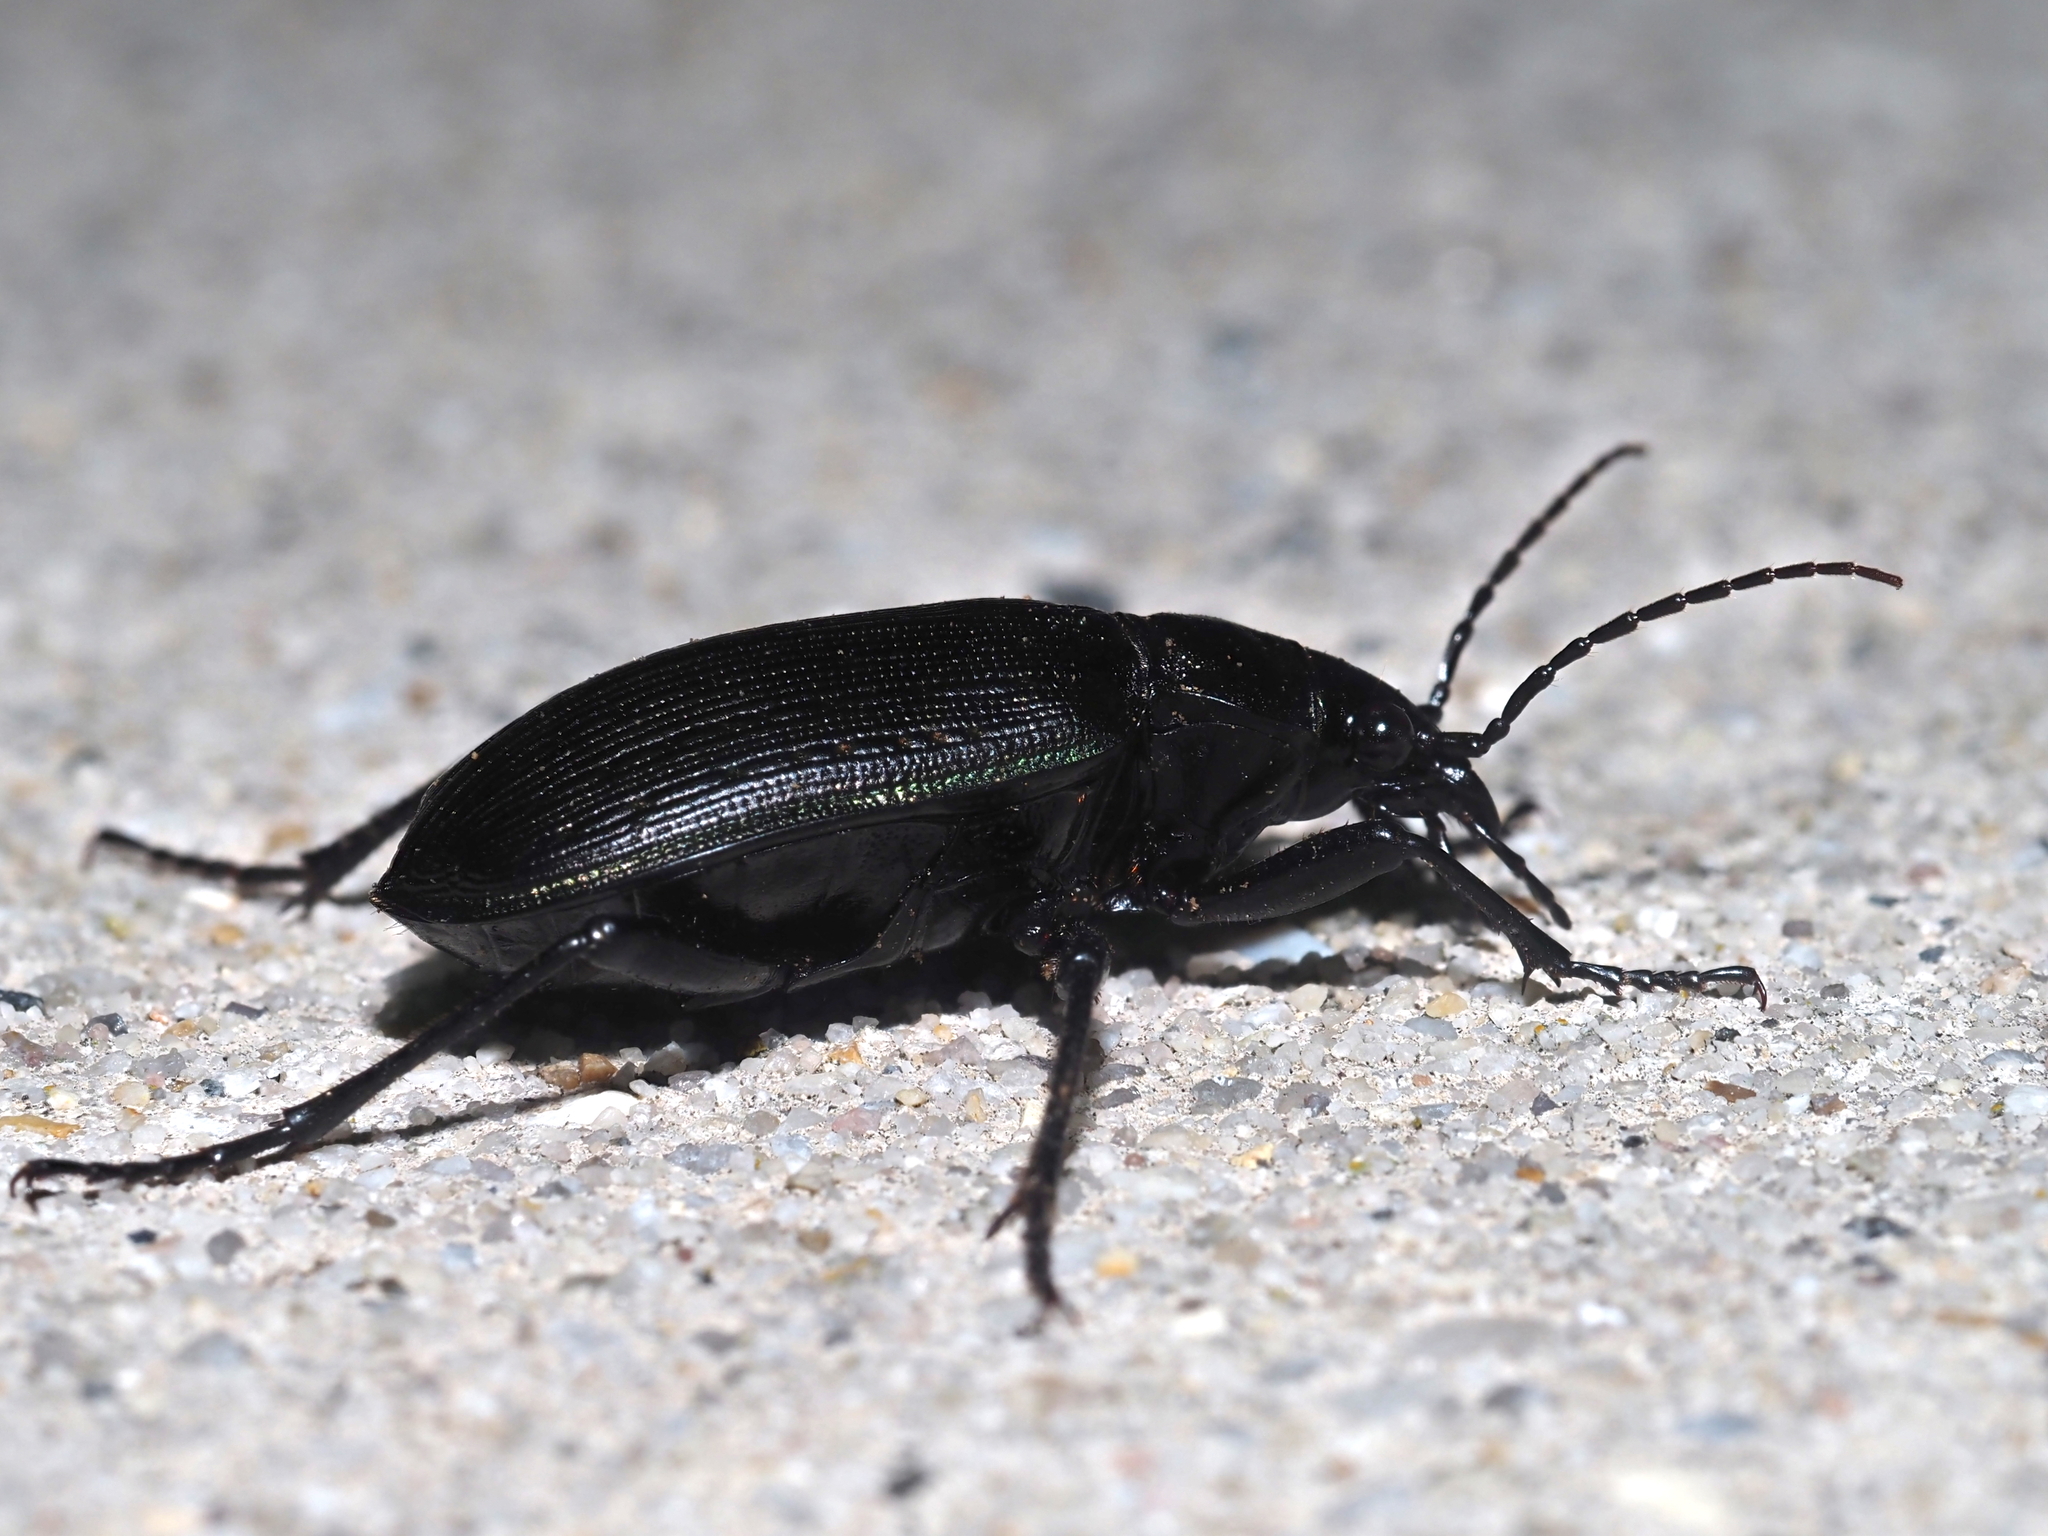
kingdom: Animalia
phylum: Arthropoda
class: Insecta
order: Coleoptera
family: Carabidae
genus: Calosoma
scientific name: Calosoma sayi
